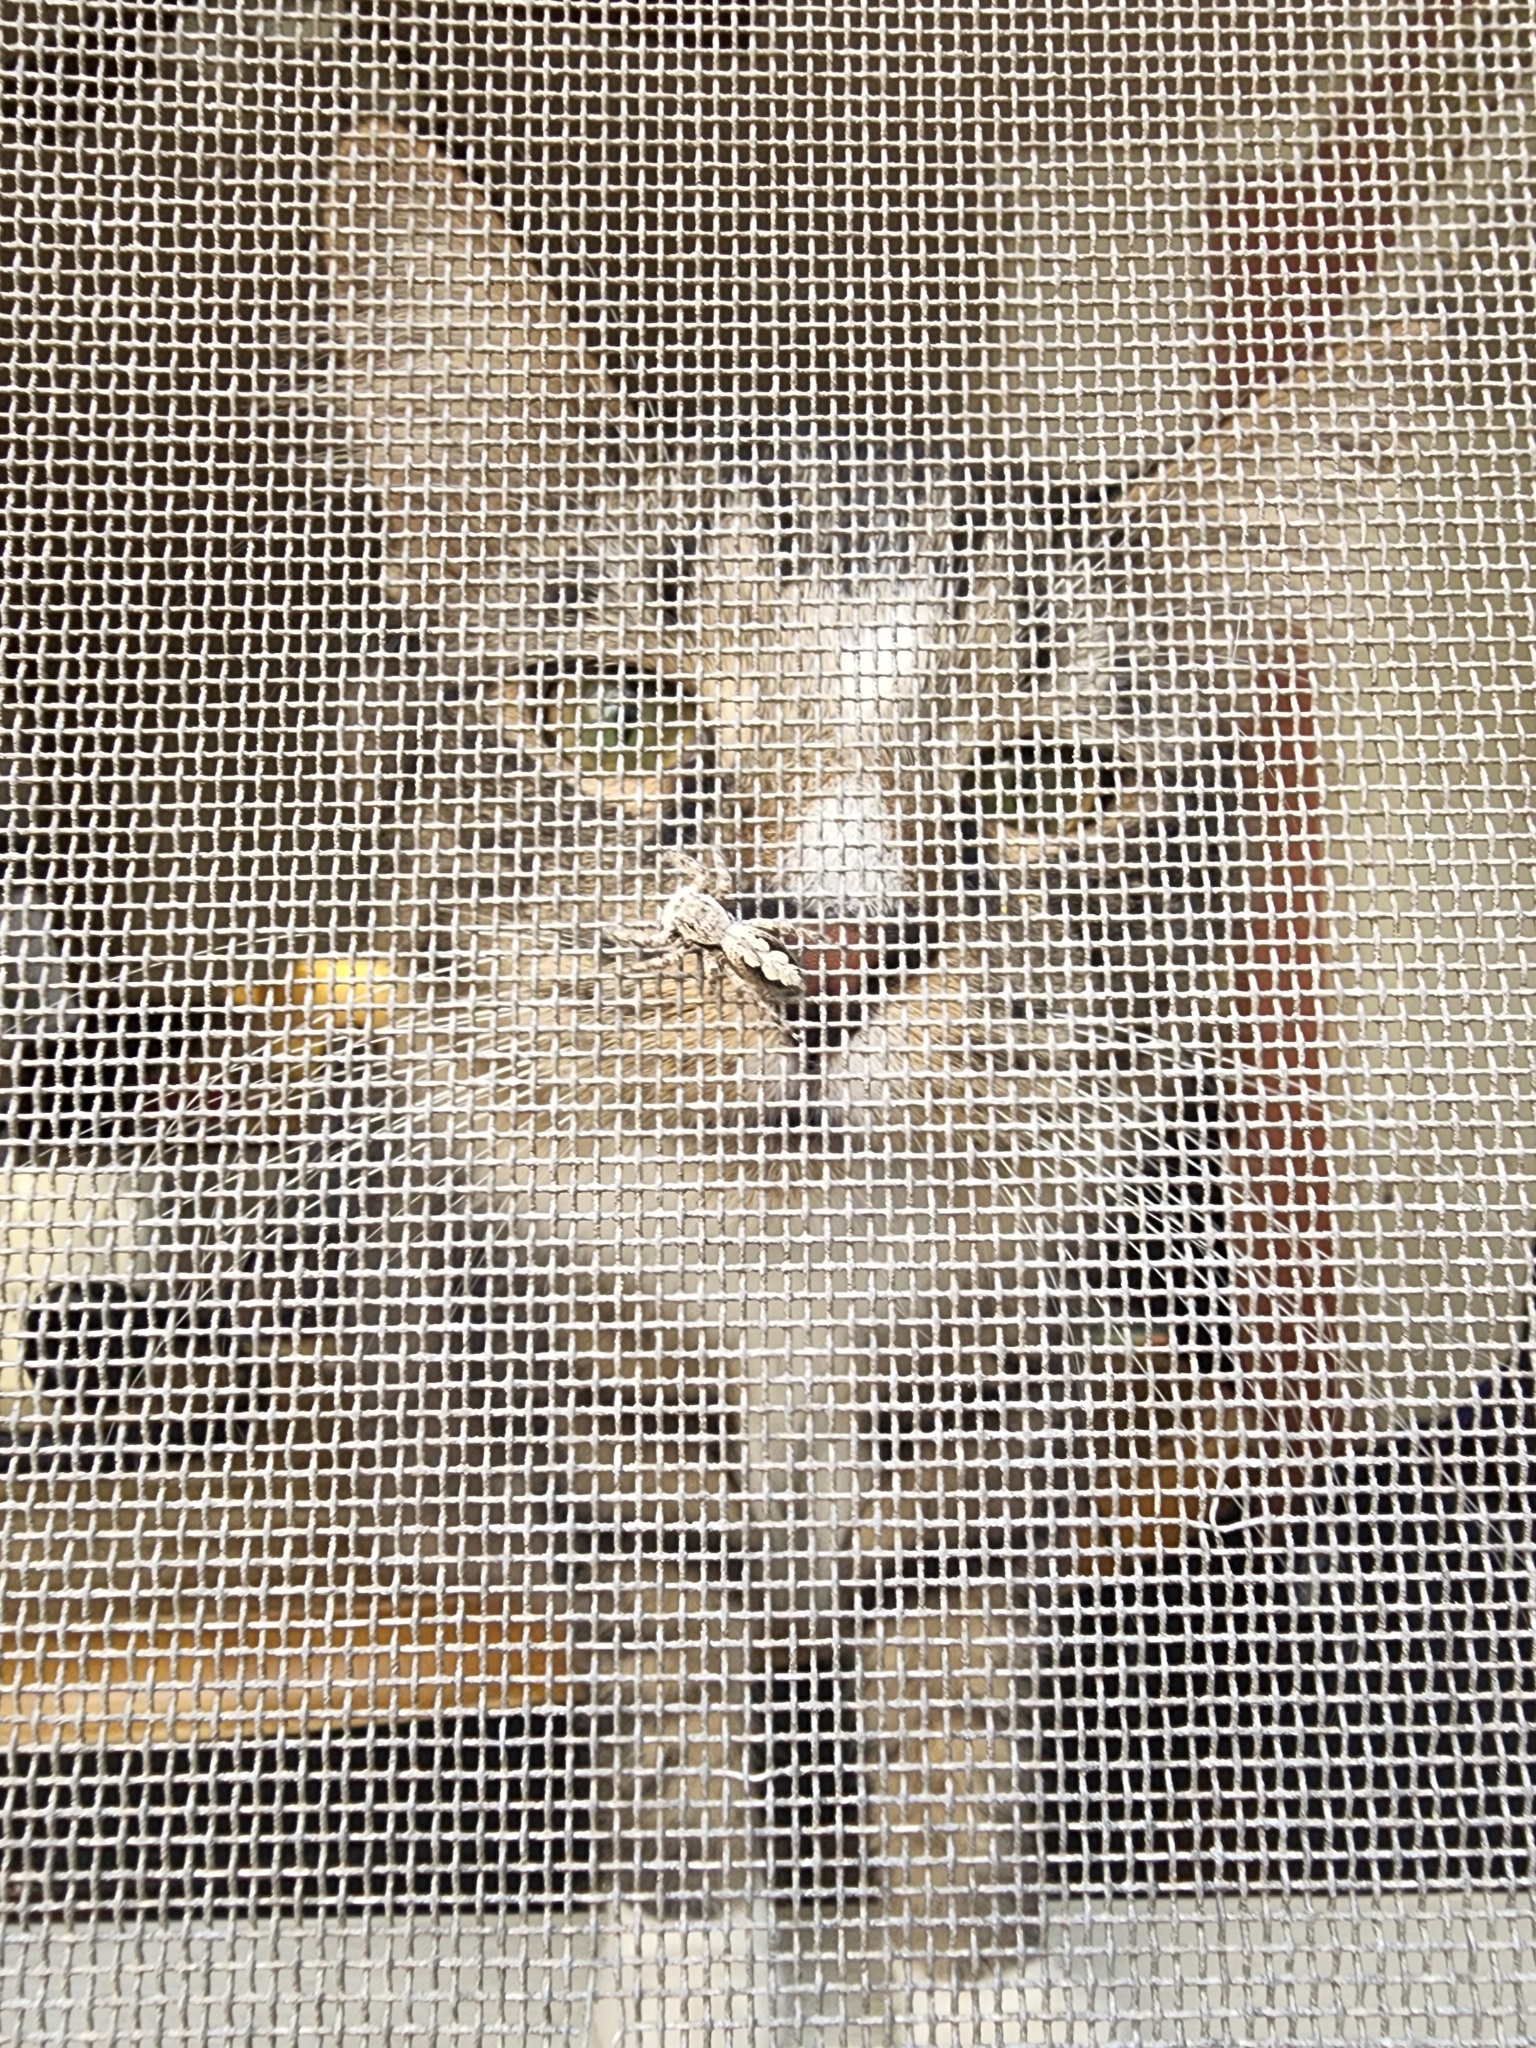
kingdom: Animalia
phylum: Arthropoda
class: Arachnida
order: Araneae
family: Salticidae
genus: Platycryptus
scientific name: Platycryptus undatus
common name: Tan jumping spider
